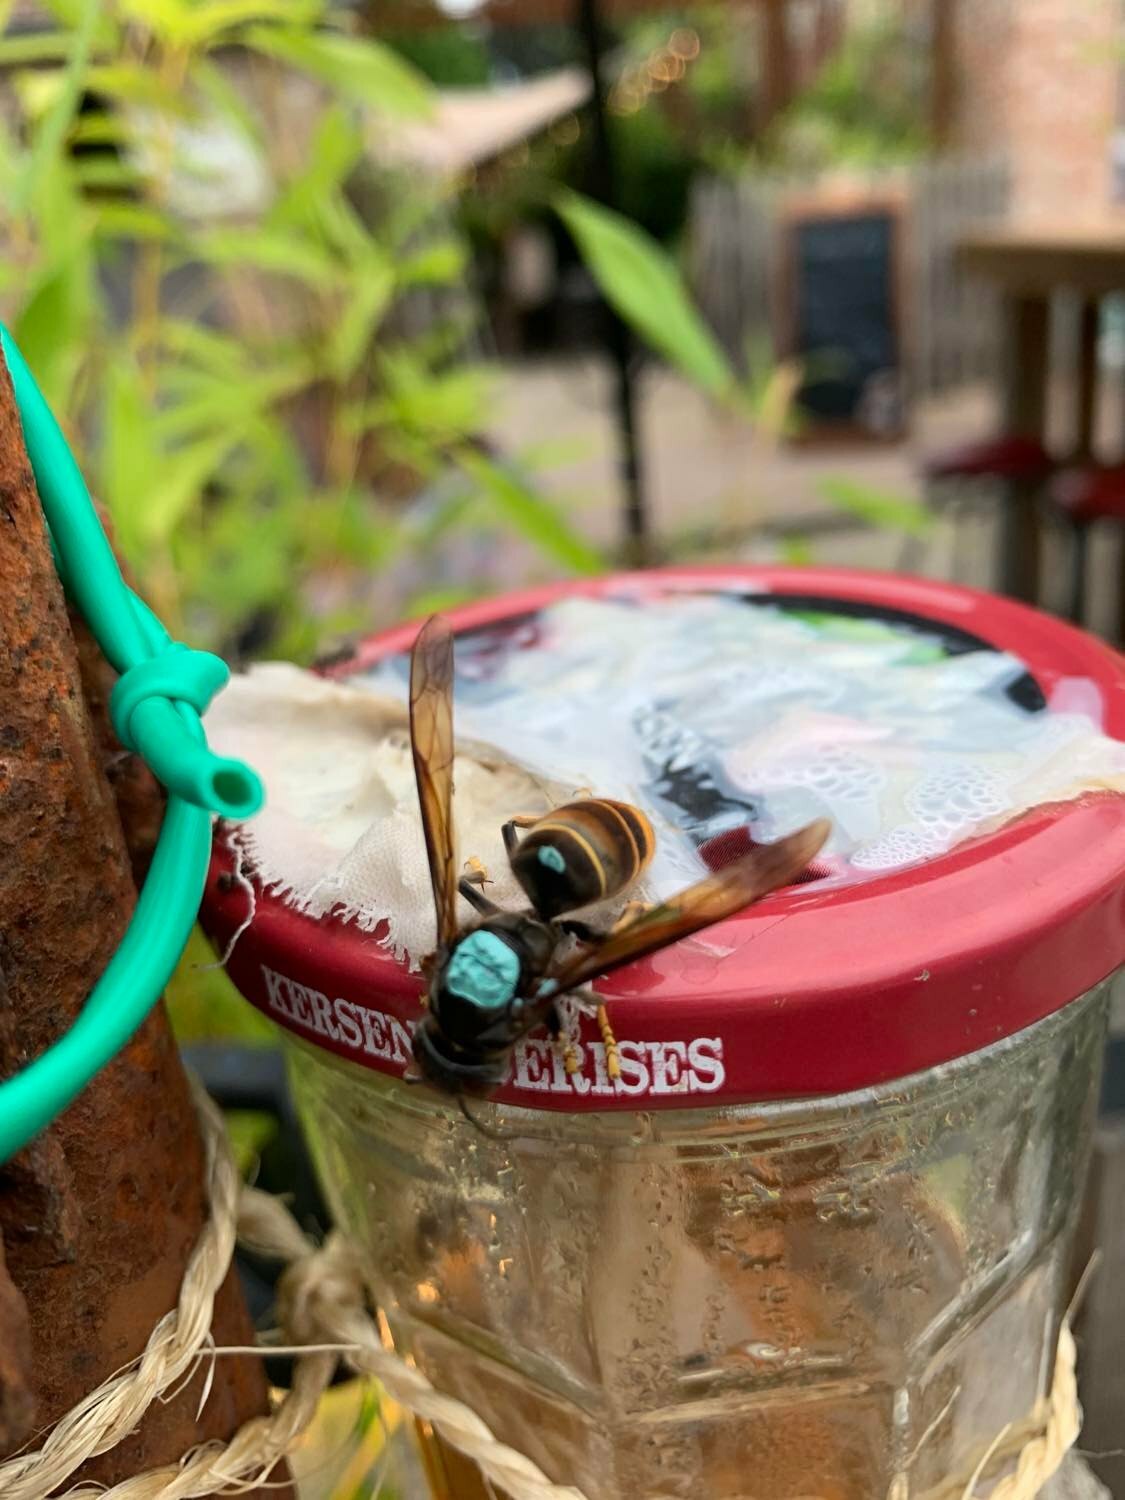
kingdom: Animalia
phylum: Arthropoda
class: Insecta
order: Hymenoptera
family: Vespidae
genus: Vespa
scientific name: Vespa velutina
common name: Asian hornet
